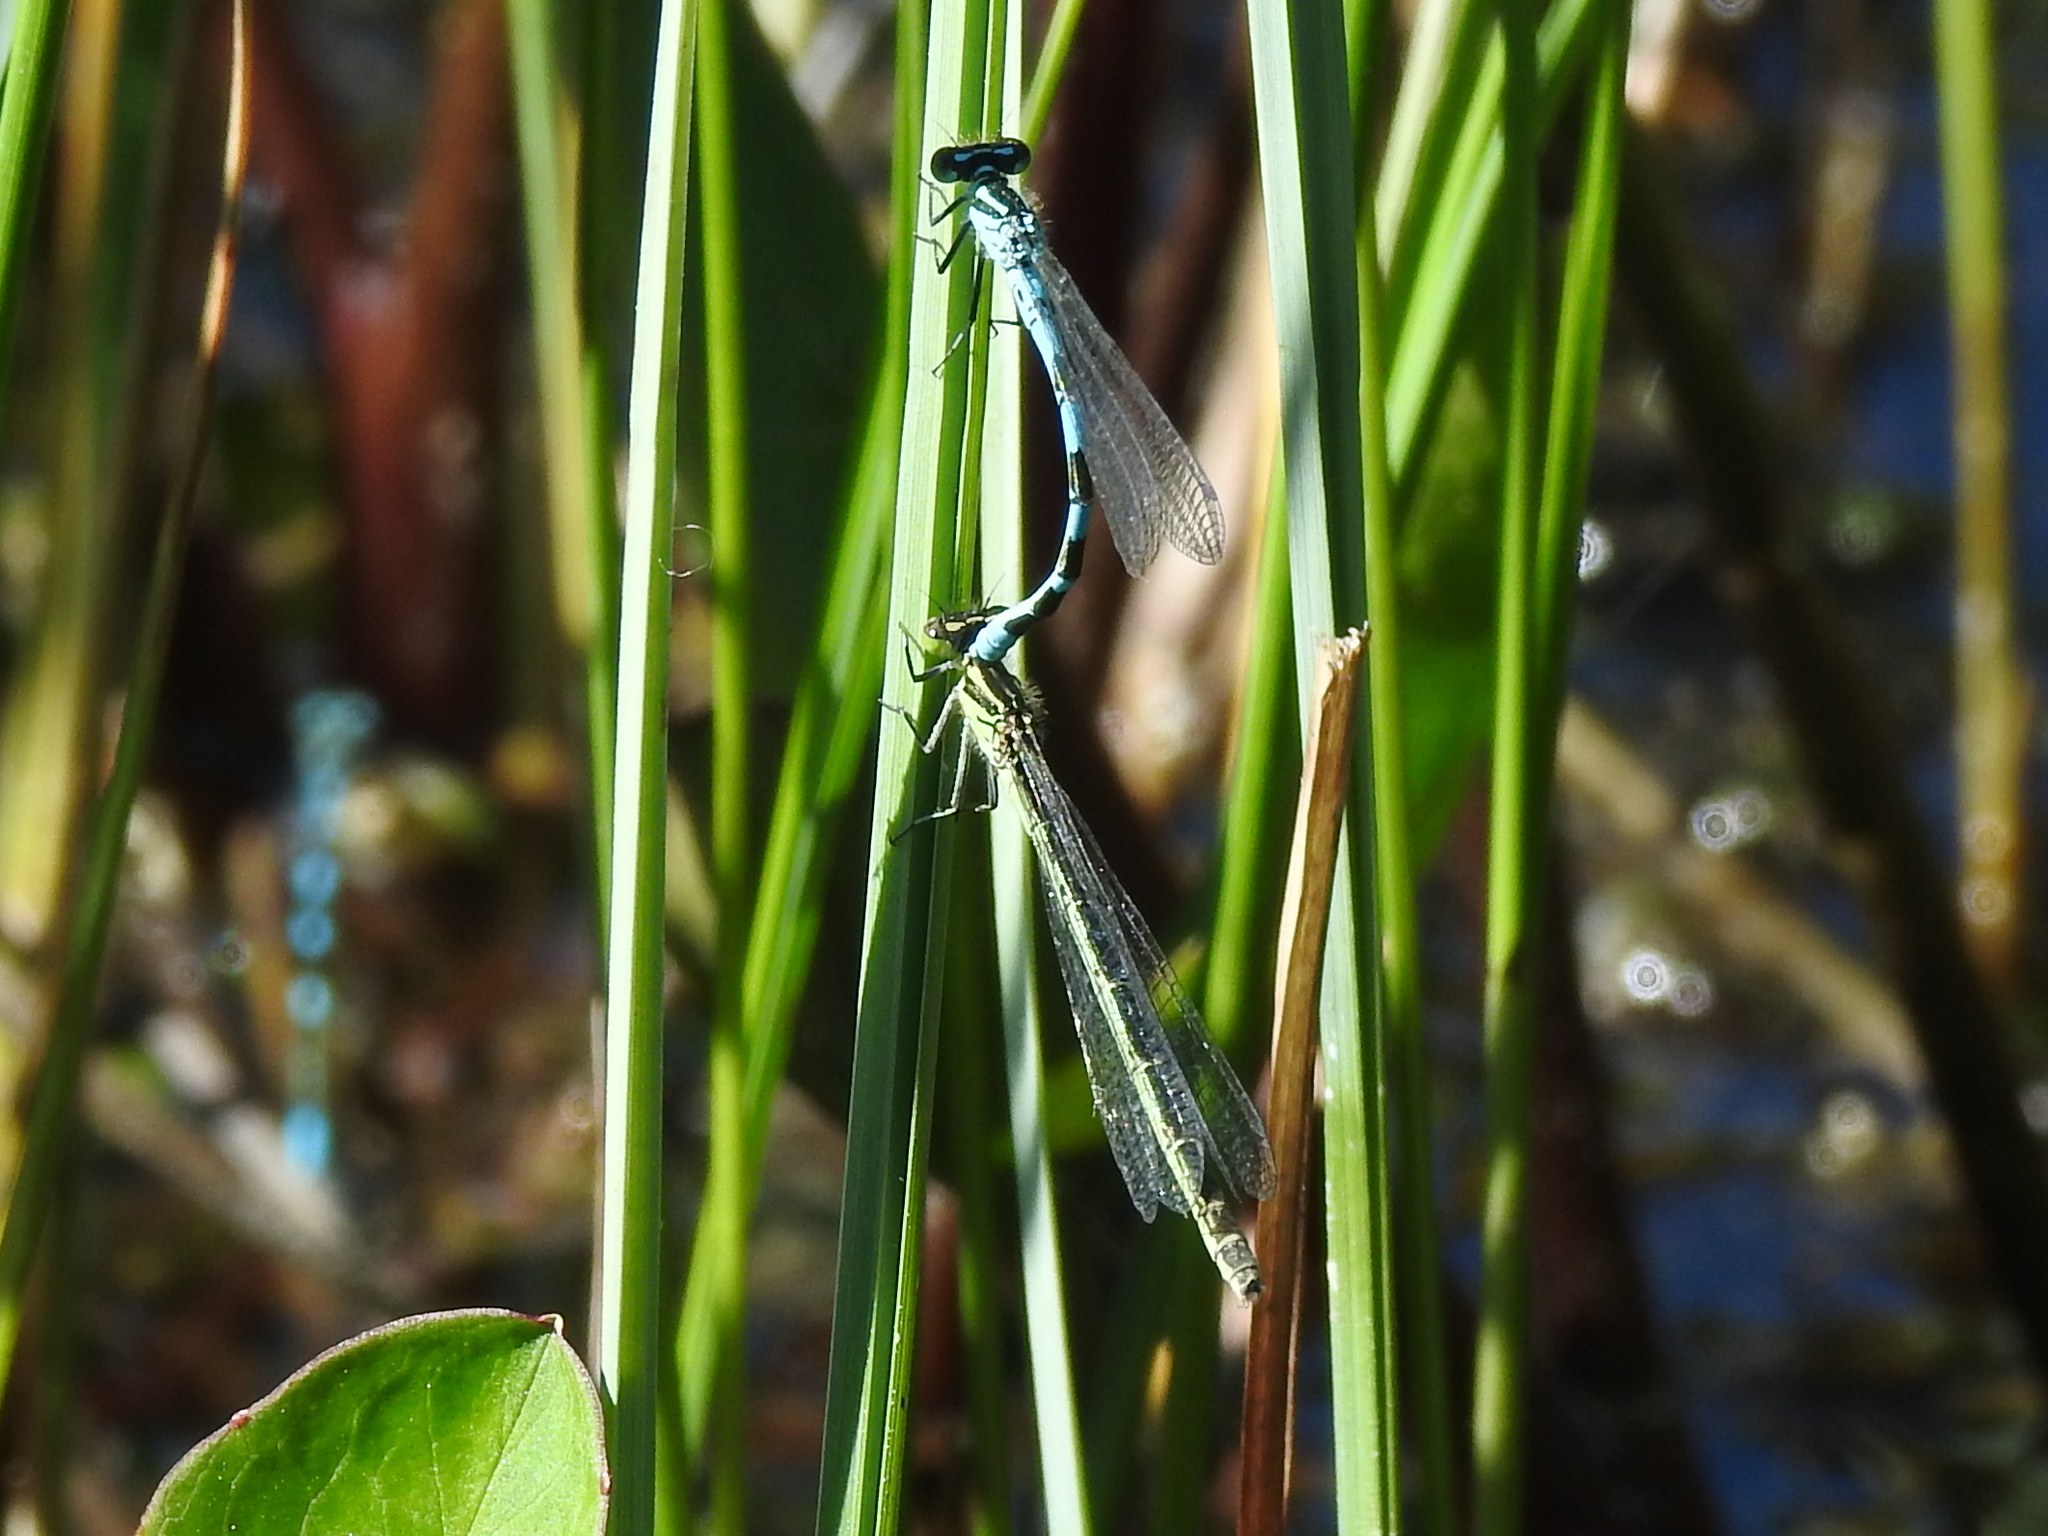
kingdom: Animalia
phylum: Arthropoda
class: Insecta
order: Odonata
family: Coenagrionidae
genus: Coenagrion
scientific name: Coenagrion hastulatum
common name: Spearhead bluet
